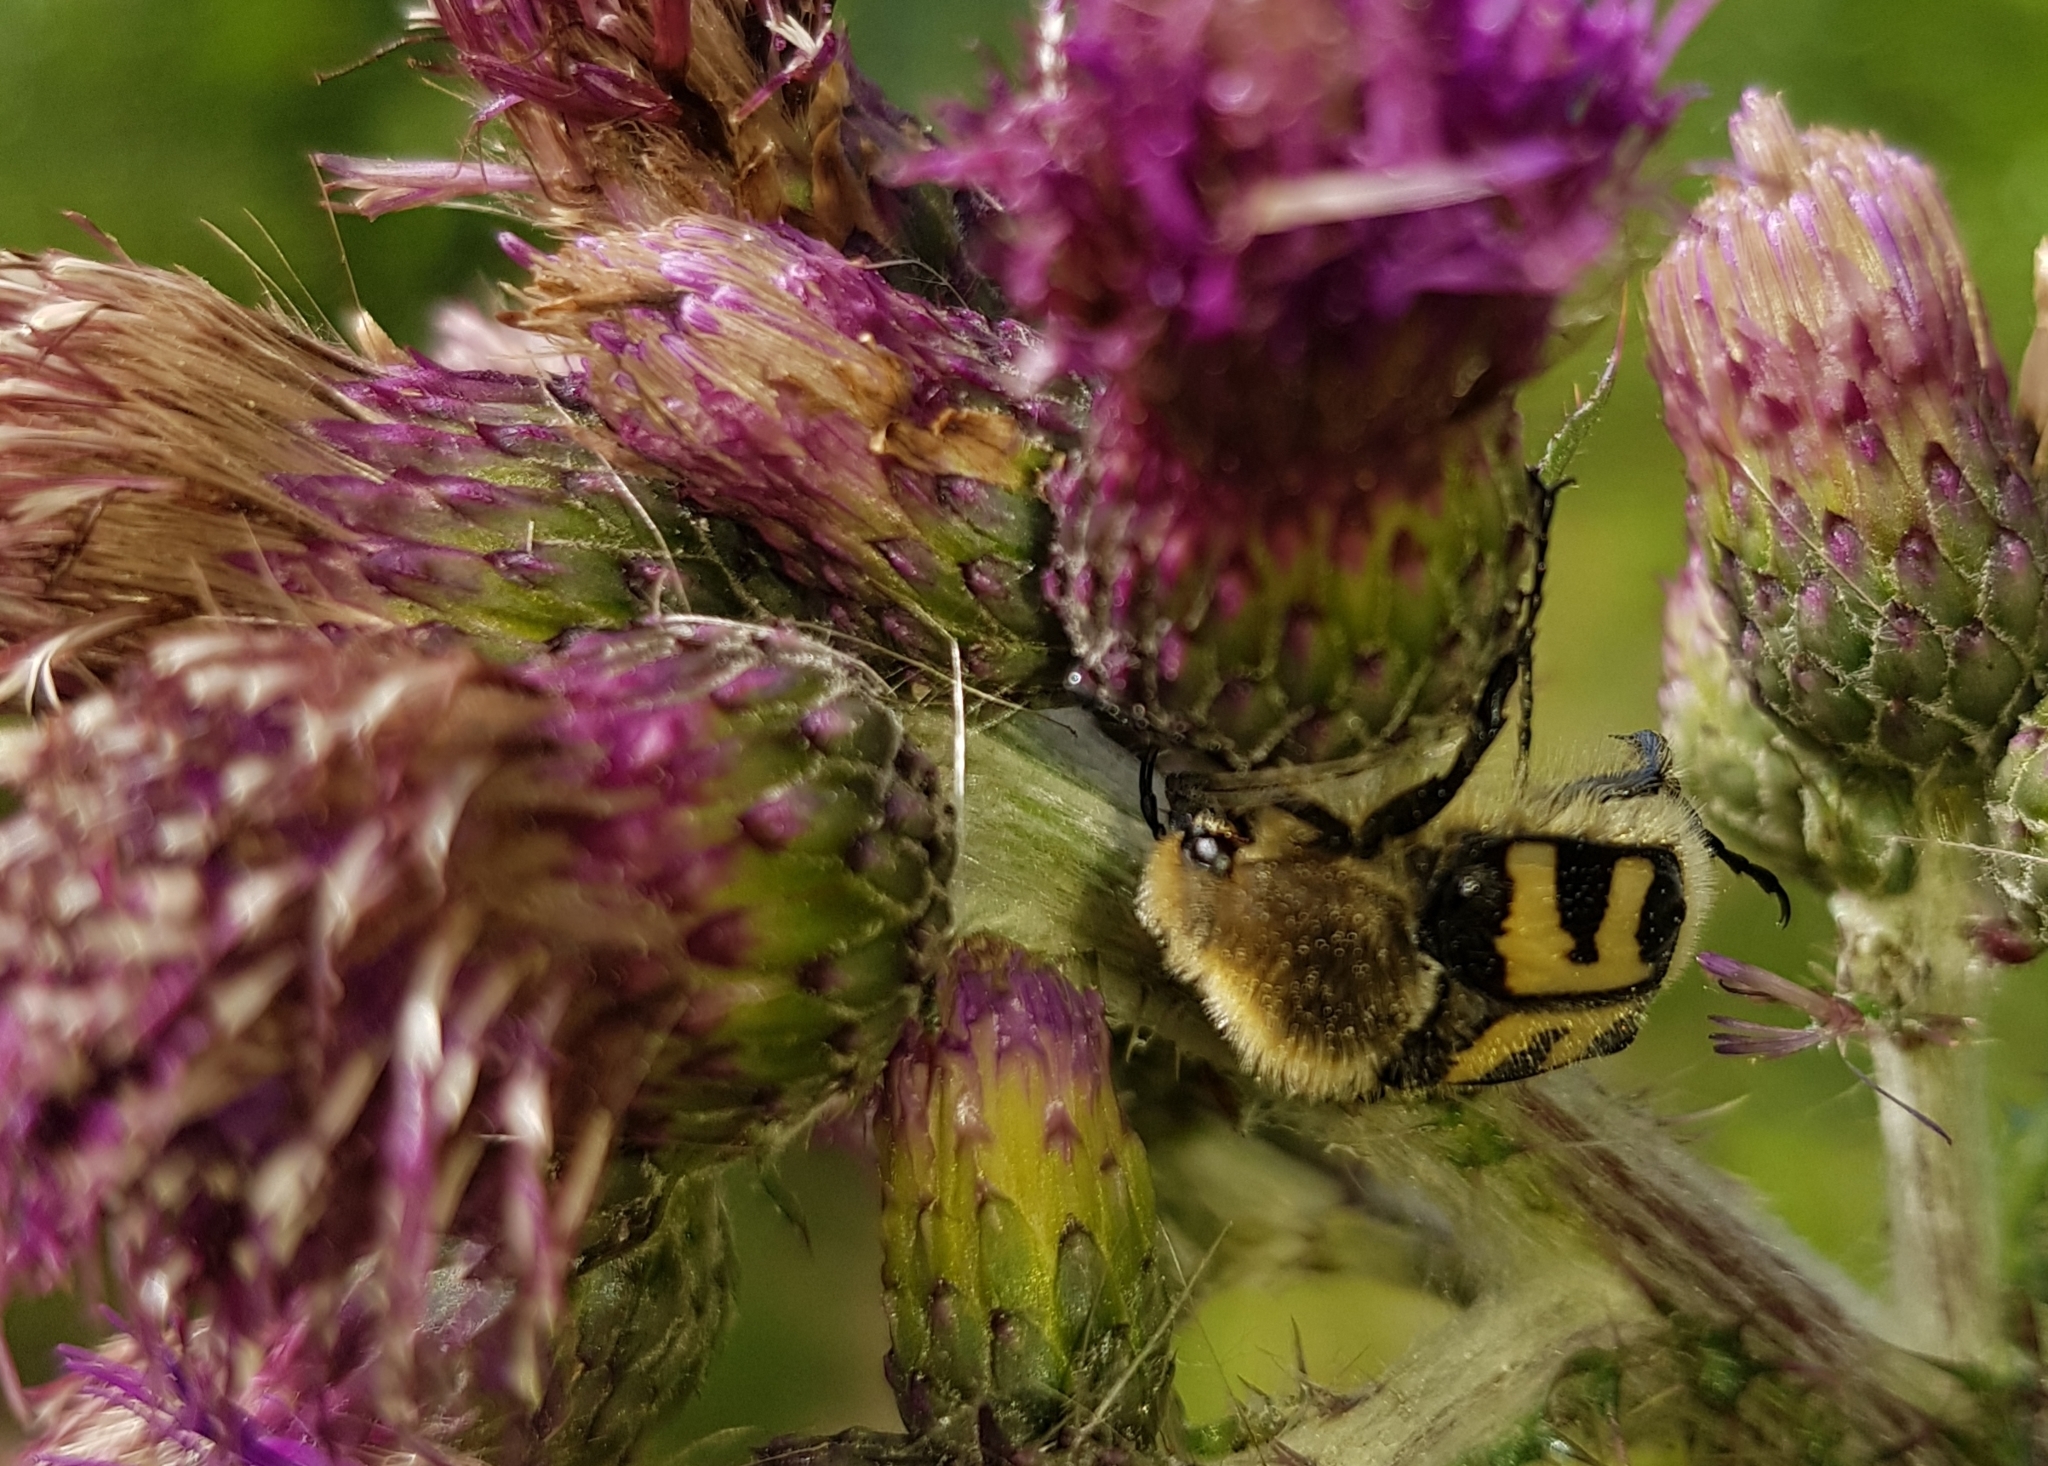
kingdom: Animalia
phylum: Arthropoda
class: Insecta
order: Coleoptera
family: Scarabaeidae
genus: Trichius
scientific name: Trichius fasciatus
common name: Bee beetle
